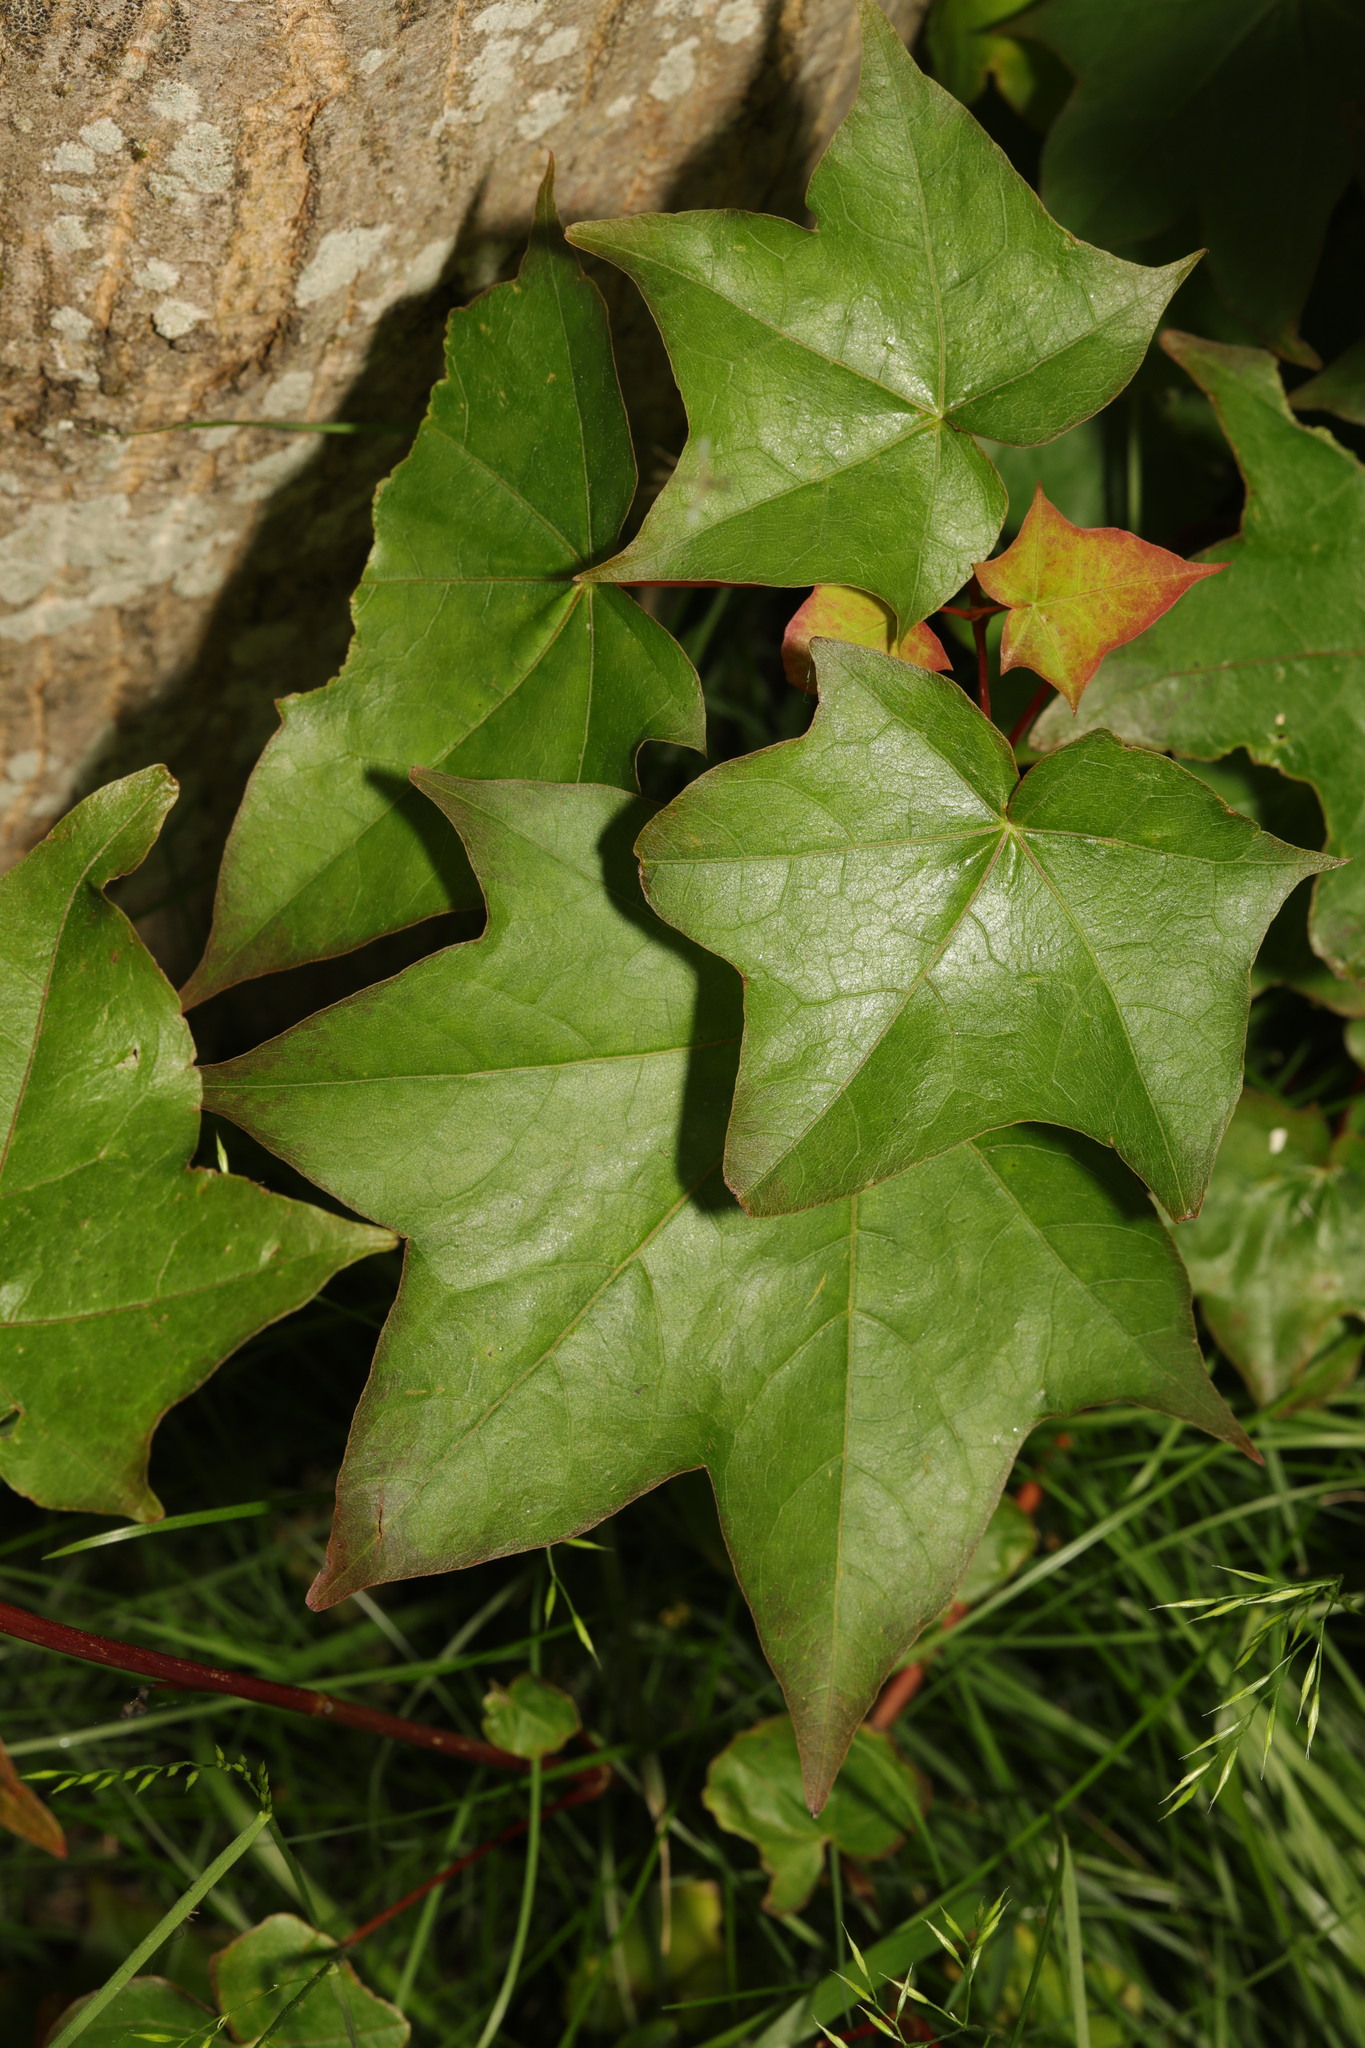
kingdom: Plantae
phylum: Tracheophyta
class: Magnoliopsida
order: Apiales
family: Araliaceae
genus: Hedera
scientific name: Hedera helix
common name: Ivy
